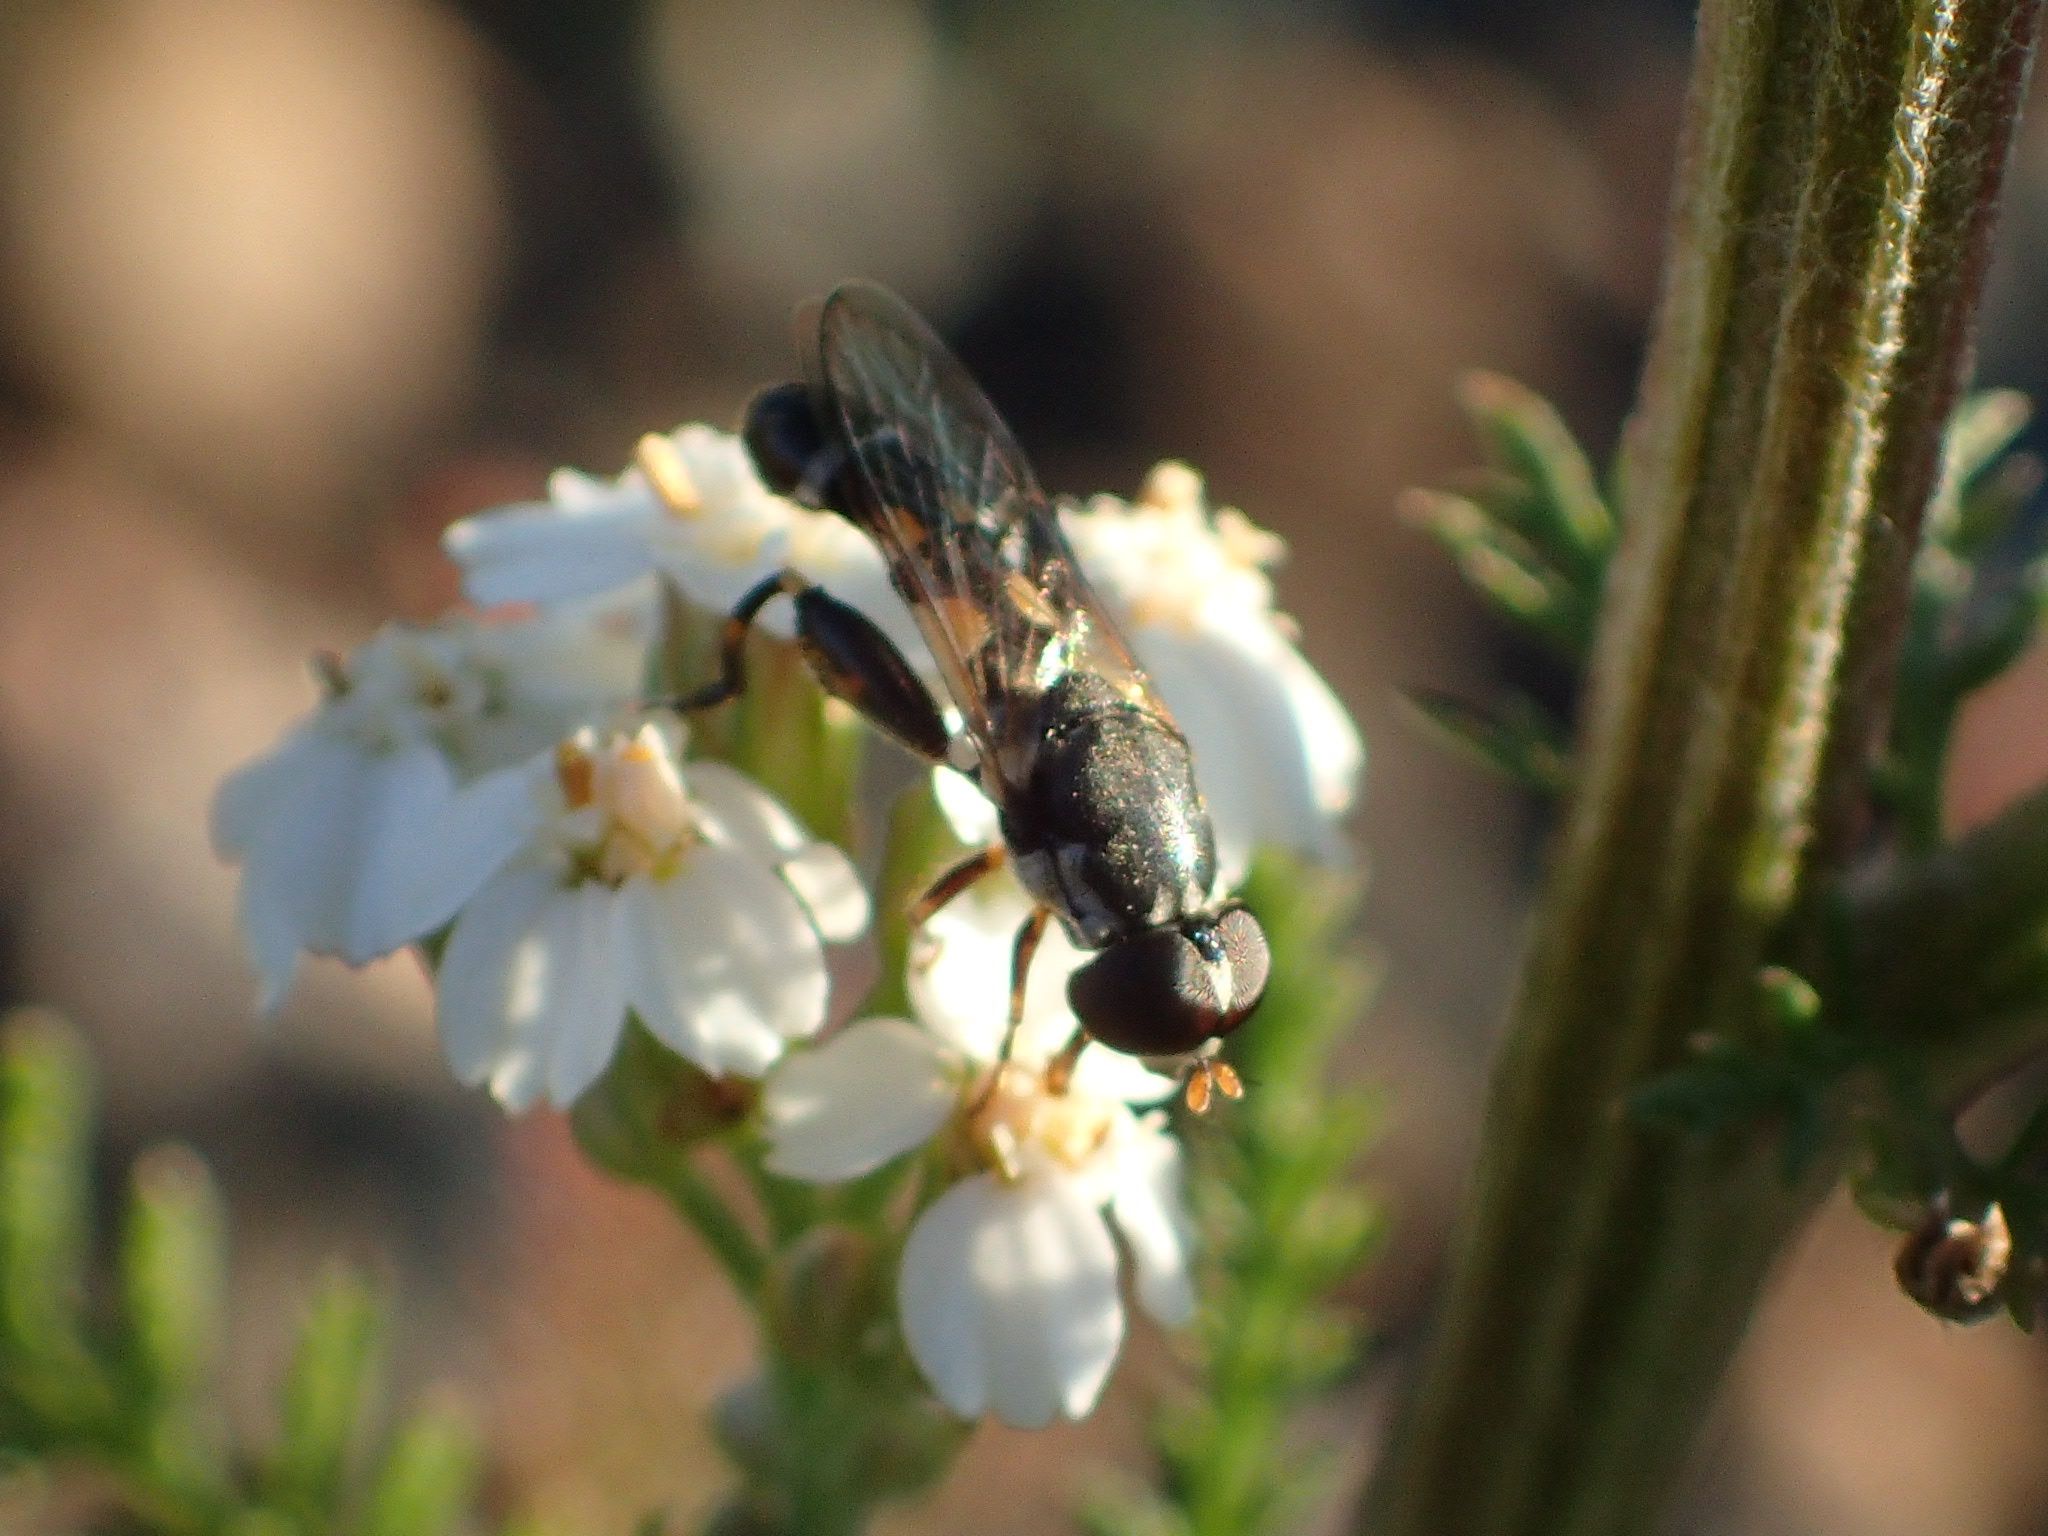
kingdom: Animalia
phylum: Arthropoda
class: Insecta
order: Diptera
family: Syrphidae
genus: Syritta
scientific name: Syritta pipiens
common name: Hover fly
